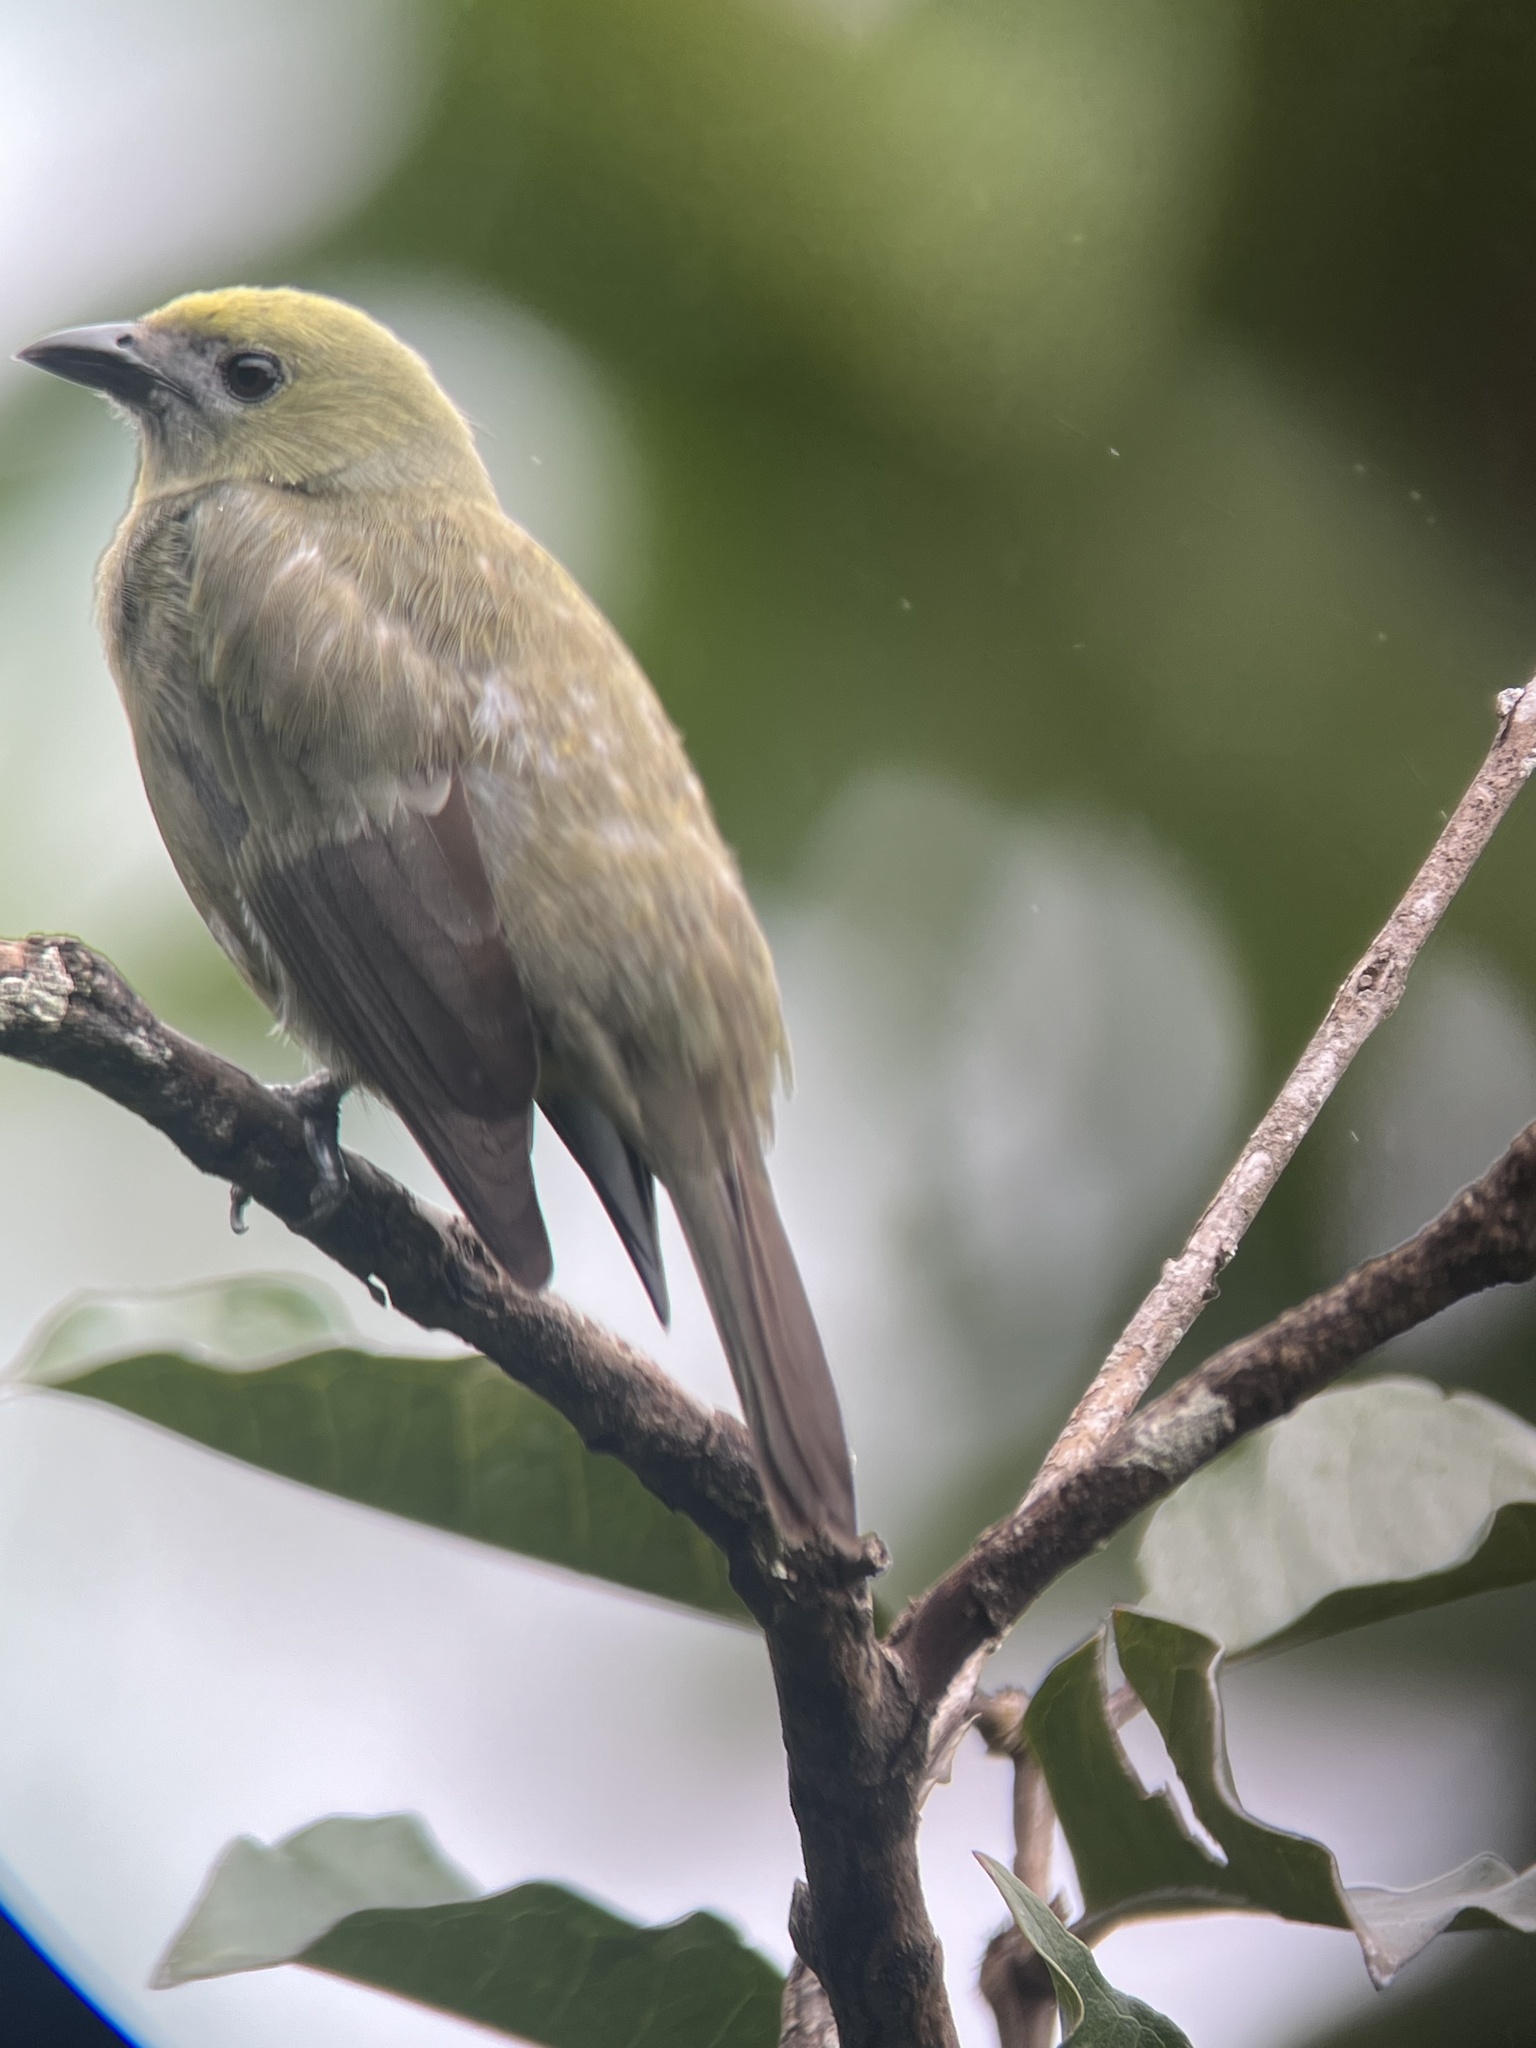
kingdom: Animalia
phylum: Chordata
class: Aves
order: Passeriformes
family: Thraupidae
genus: Thraupis
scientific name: Thraupis palmarum
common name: Palm tanager
